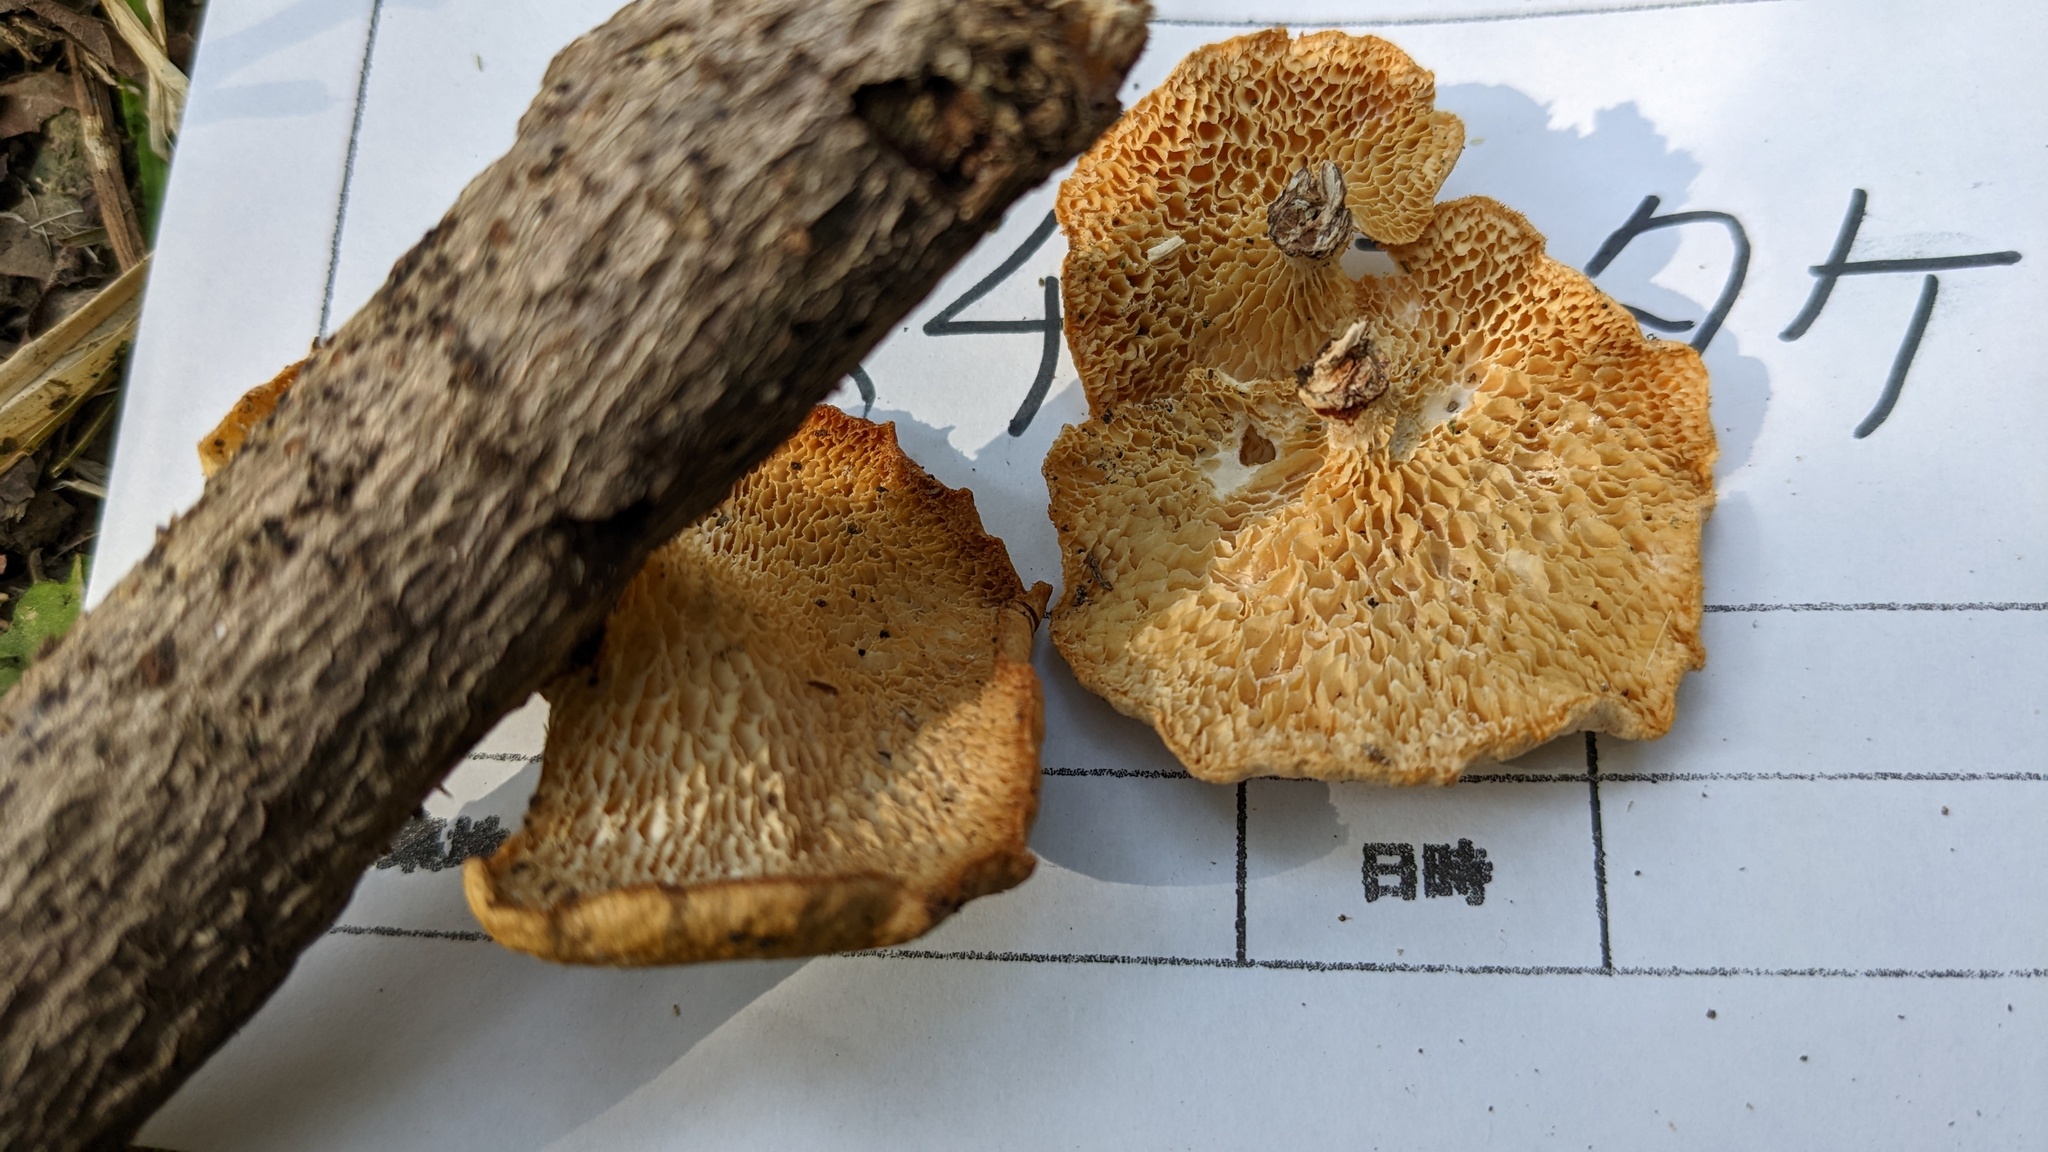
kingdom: Fungi
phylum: Basidiomycota
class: Agaricomycetes
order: Polyporales
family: Polyporaceae
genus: Neofavolus
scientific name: Neofavolus alveolaris
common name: Hexagonal-pored polypore
